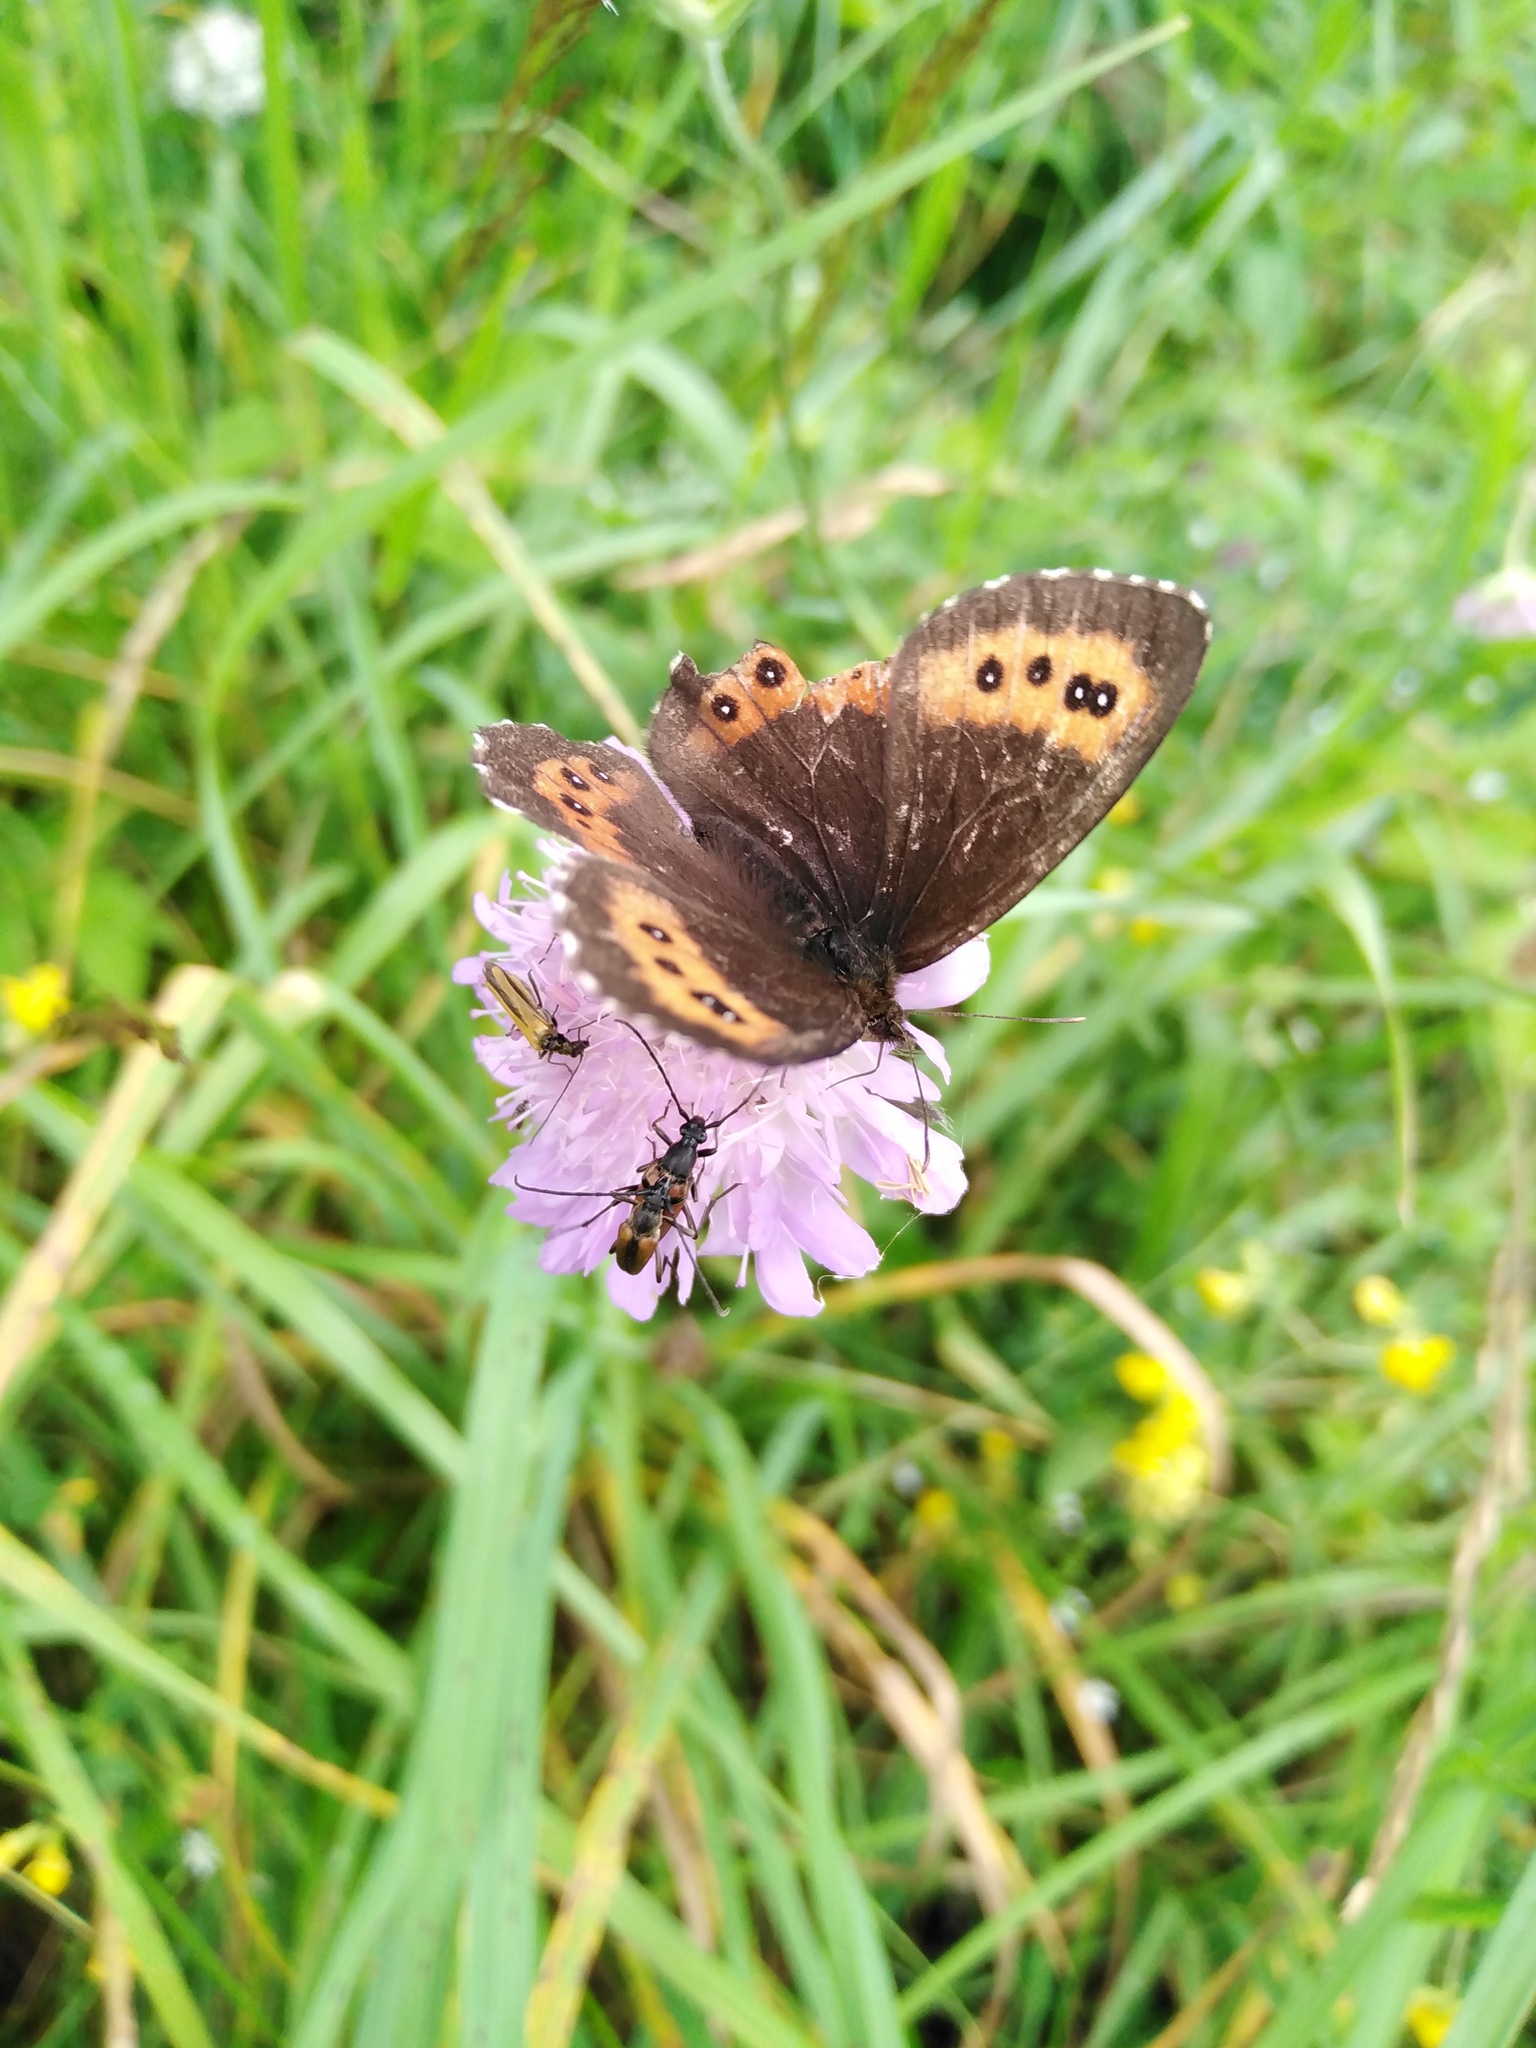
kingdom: Animalia
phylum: Arthropoda
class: Insecta
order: Lepidoptera
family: Nymphalidae
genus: Erebia
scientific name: Erebia ligea
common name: Arran brown
